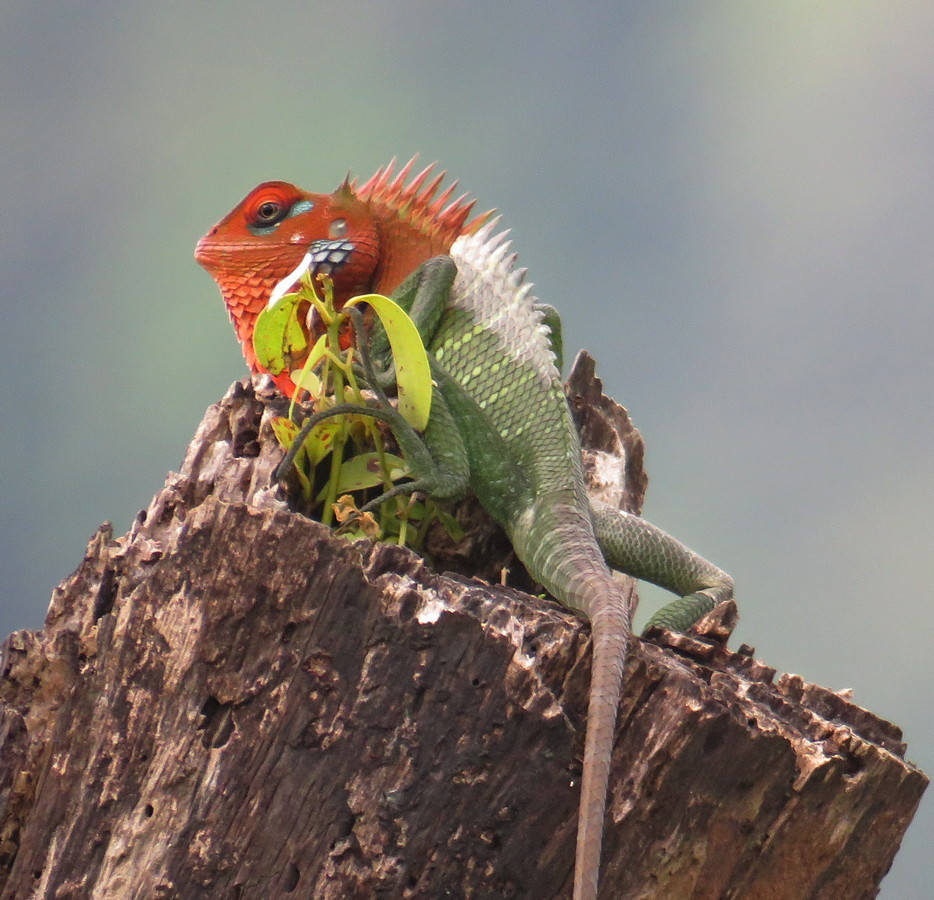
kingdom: Animalia
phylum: Chordata
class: Squamata
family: Agamidae
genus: Calotes
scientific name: Calotes calotes
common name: Common green forest lizard
